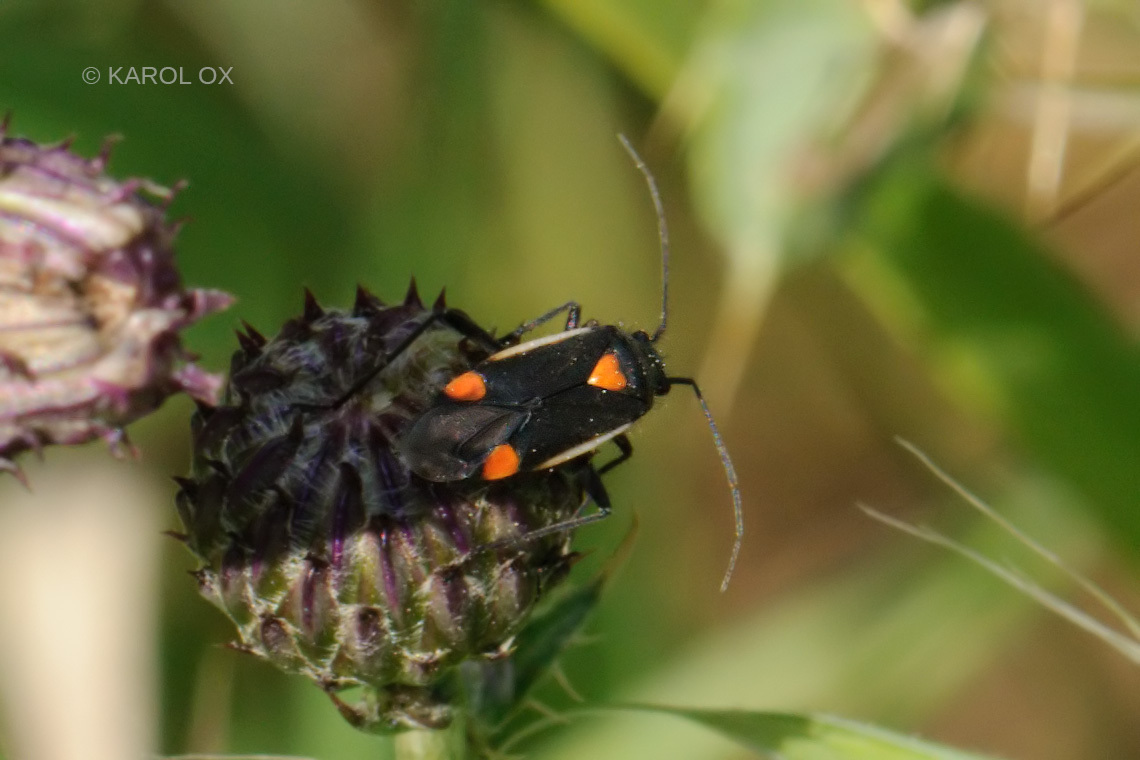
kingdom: Animalia
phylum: Arthropoda
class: Insecta
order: Hemiptera
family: Miridae
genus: Capsodes
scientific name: Capsodes gothicus
